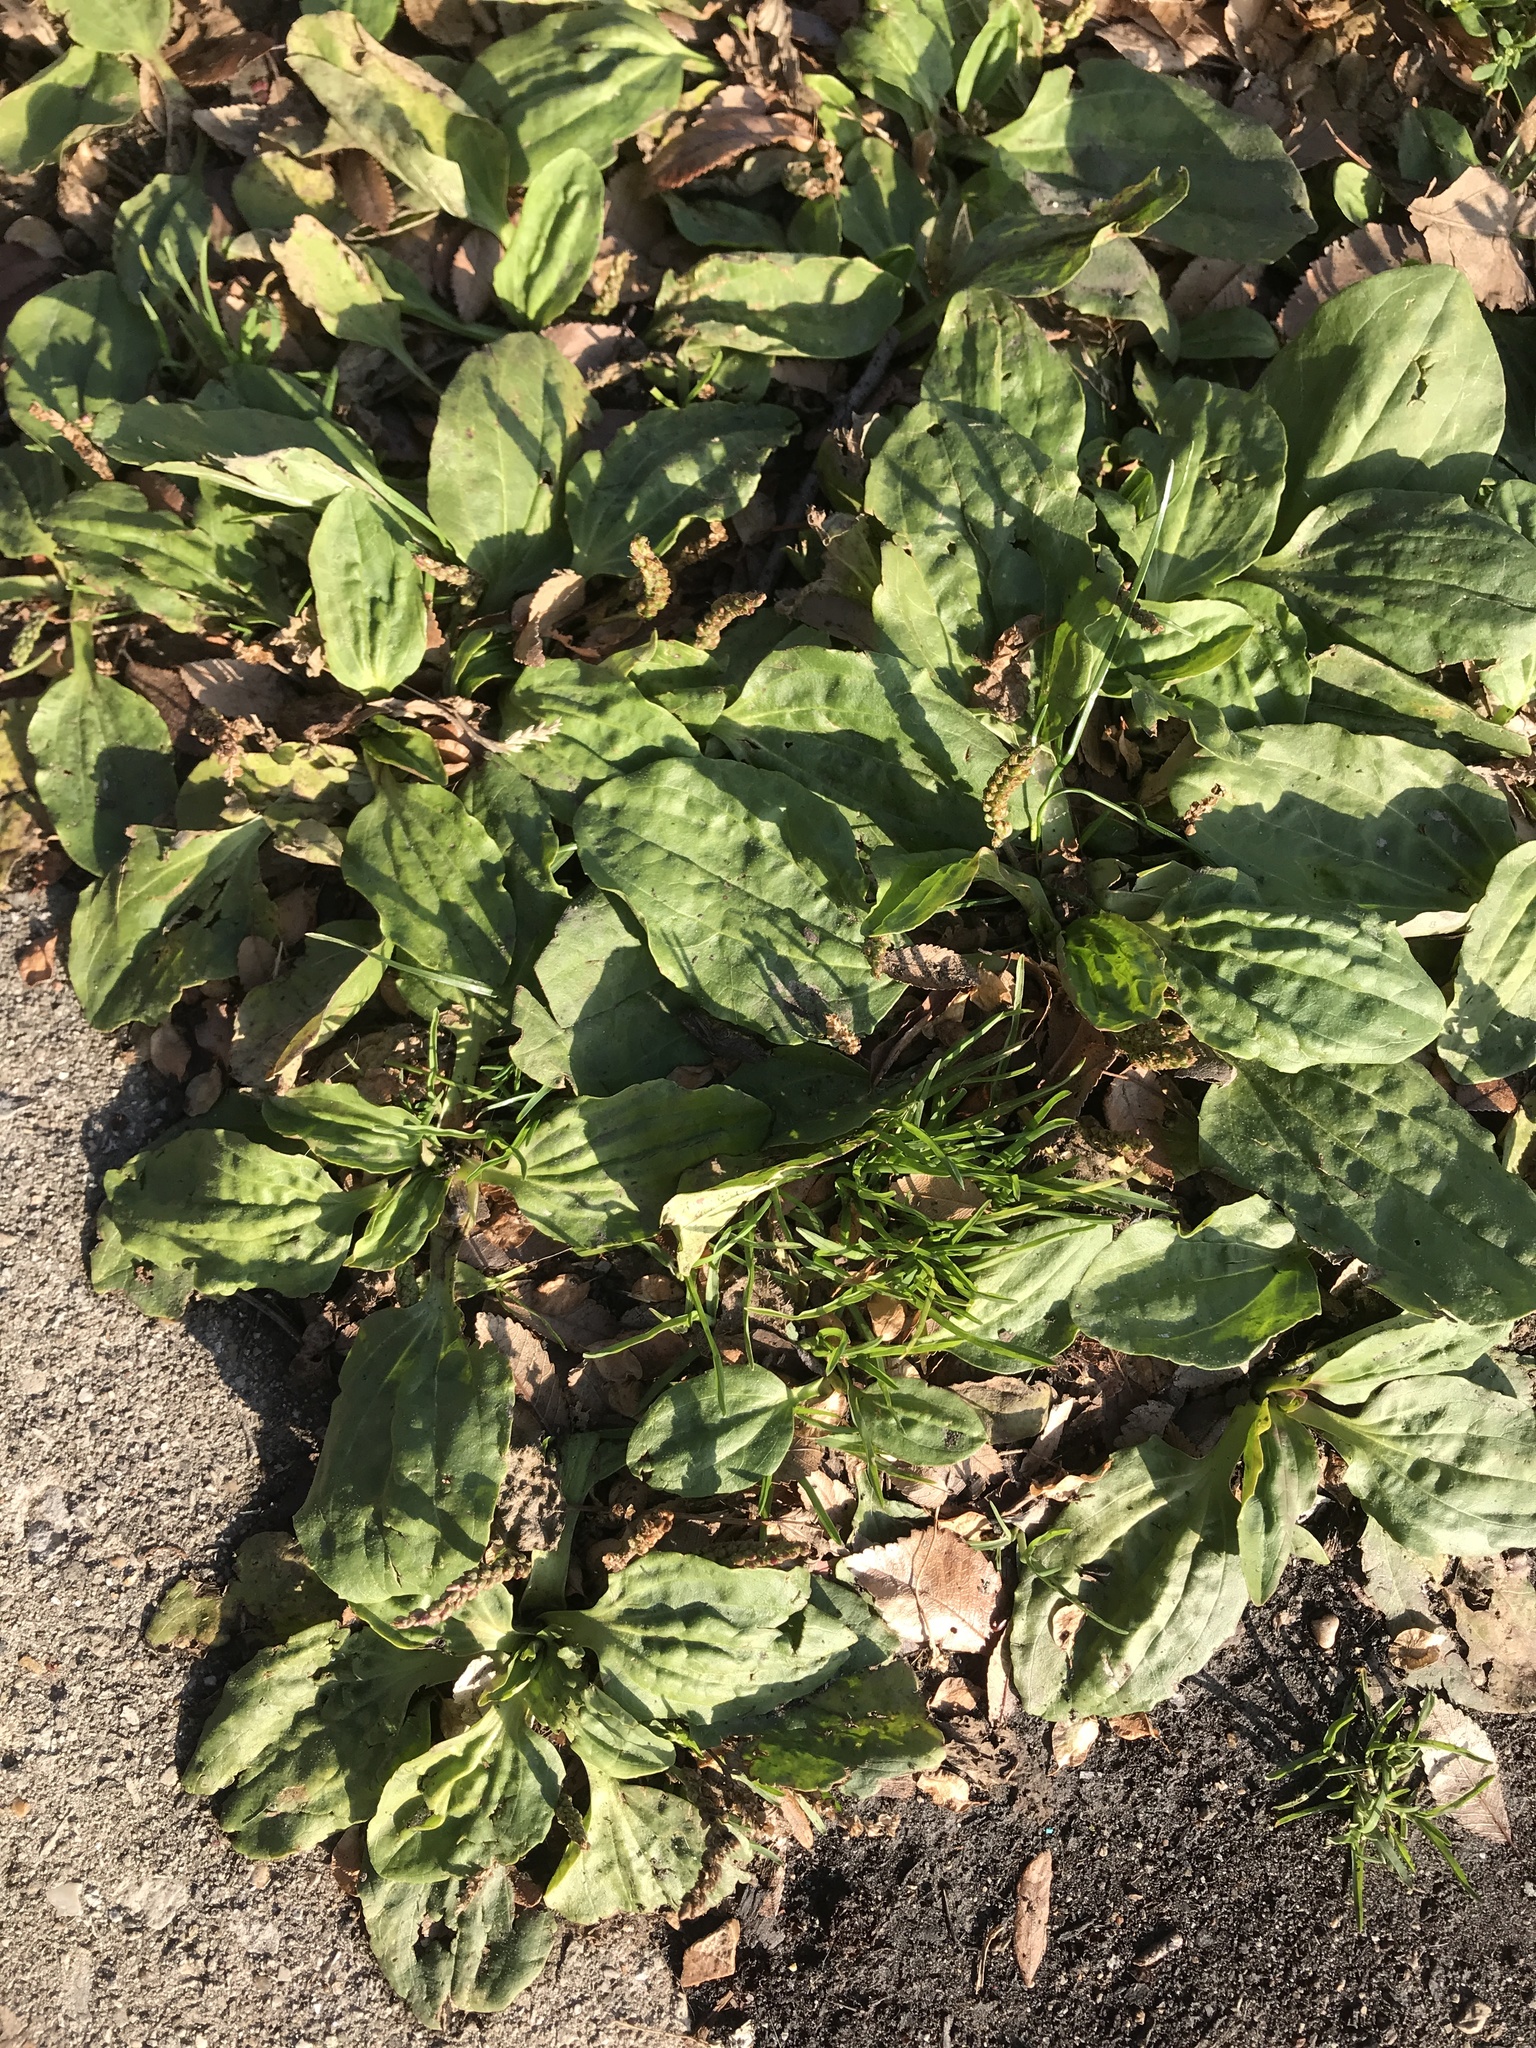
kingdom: Plantae
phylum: Tracheophyta
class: Magnoliopsida
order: Lamiales
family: Plantaginaceae
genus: Plantago
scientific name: Plantago major
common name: Common plantain
